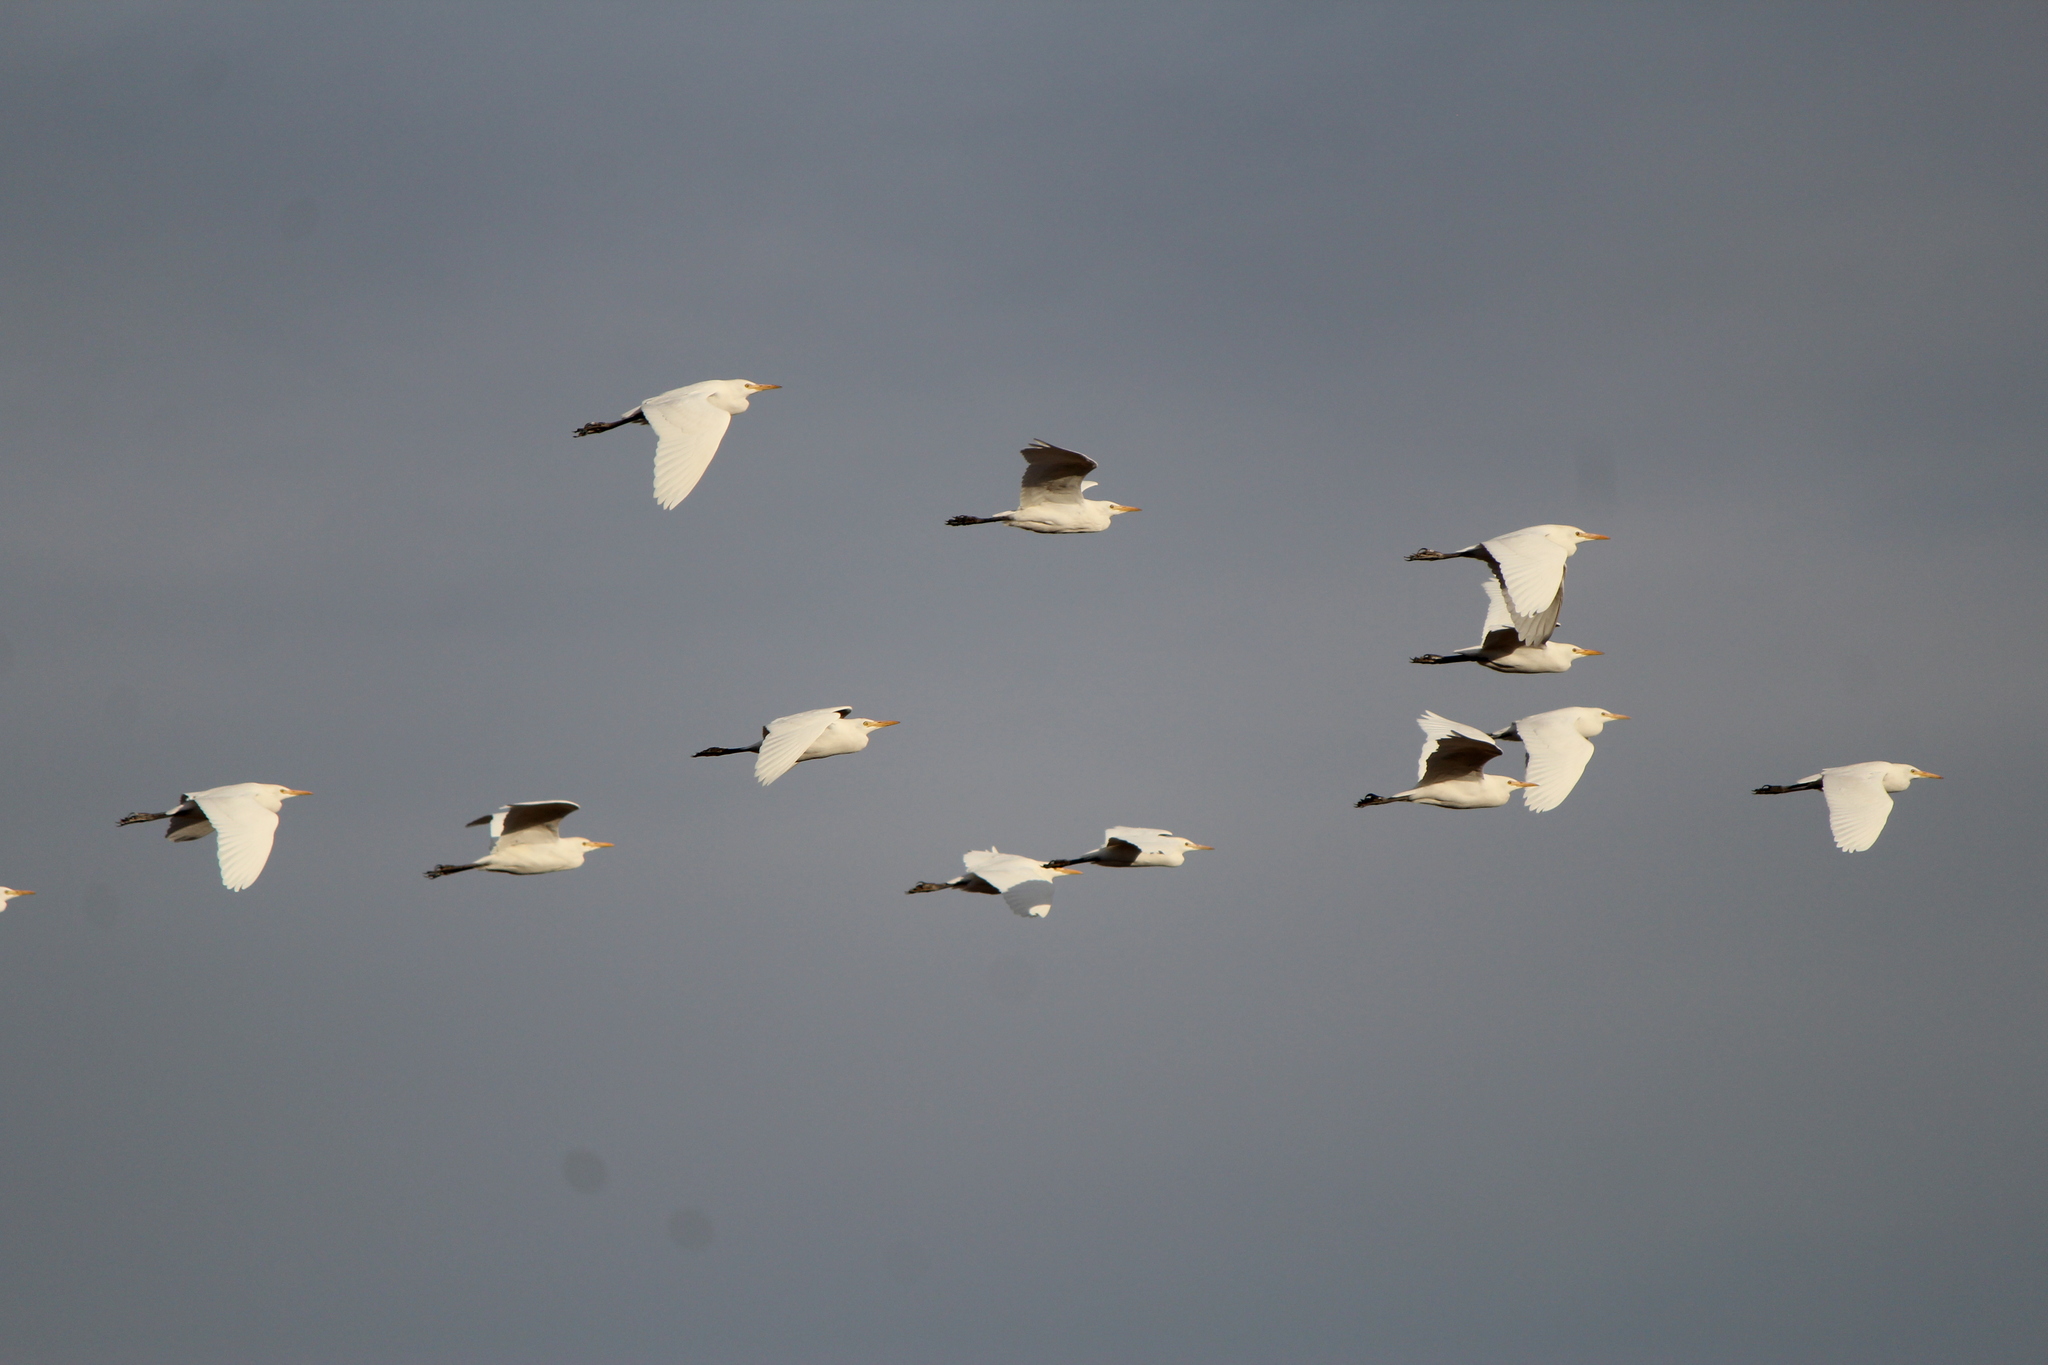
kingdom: Animalia
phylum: Chordata
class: Aves
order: Pelecaniformes
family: Ardeidae
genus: Bubulcus
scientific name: Bubulcus ibis
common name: Cattle egret
